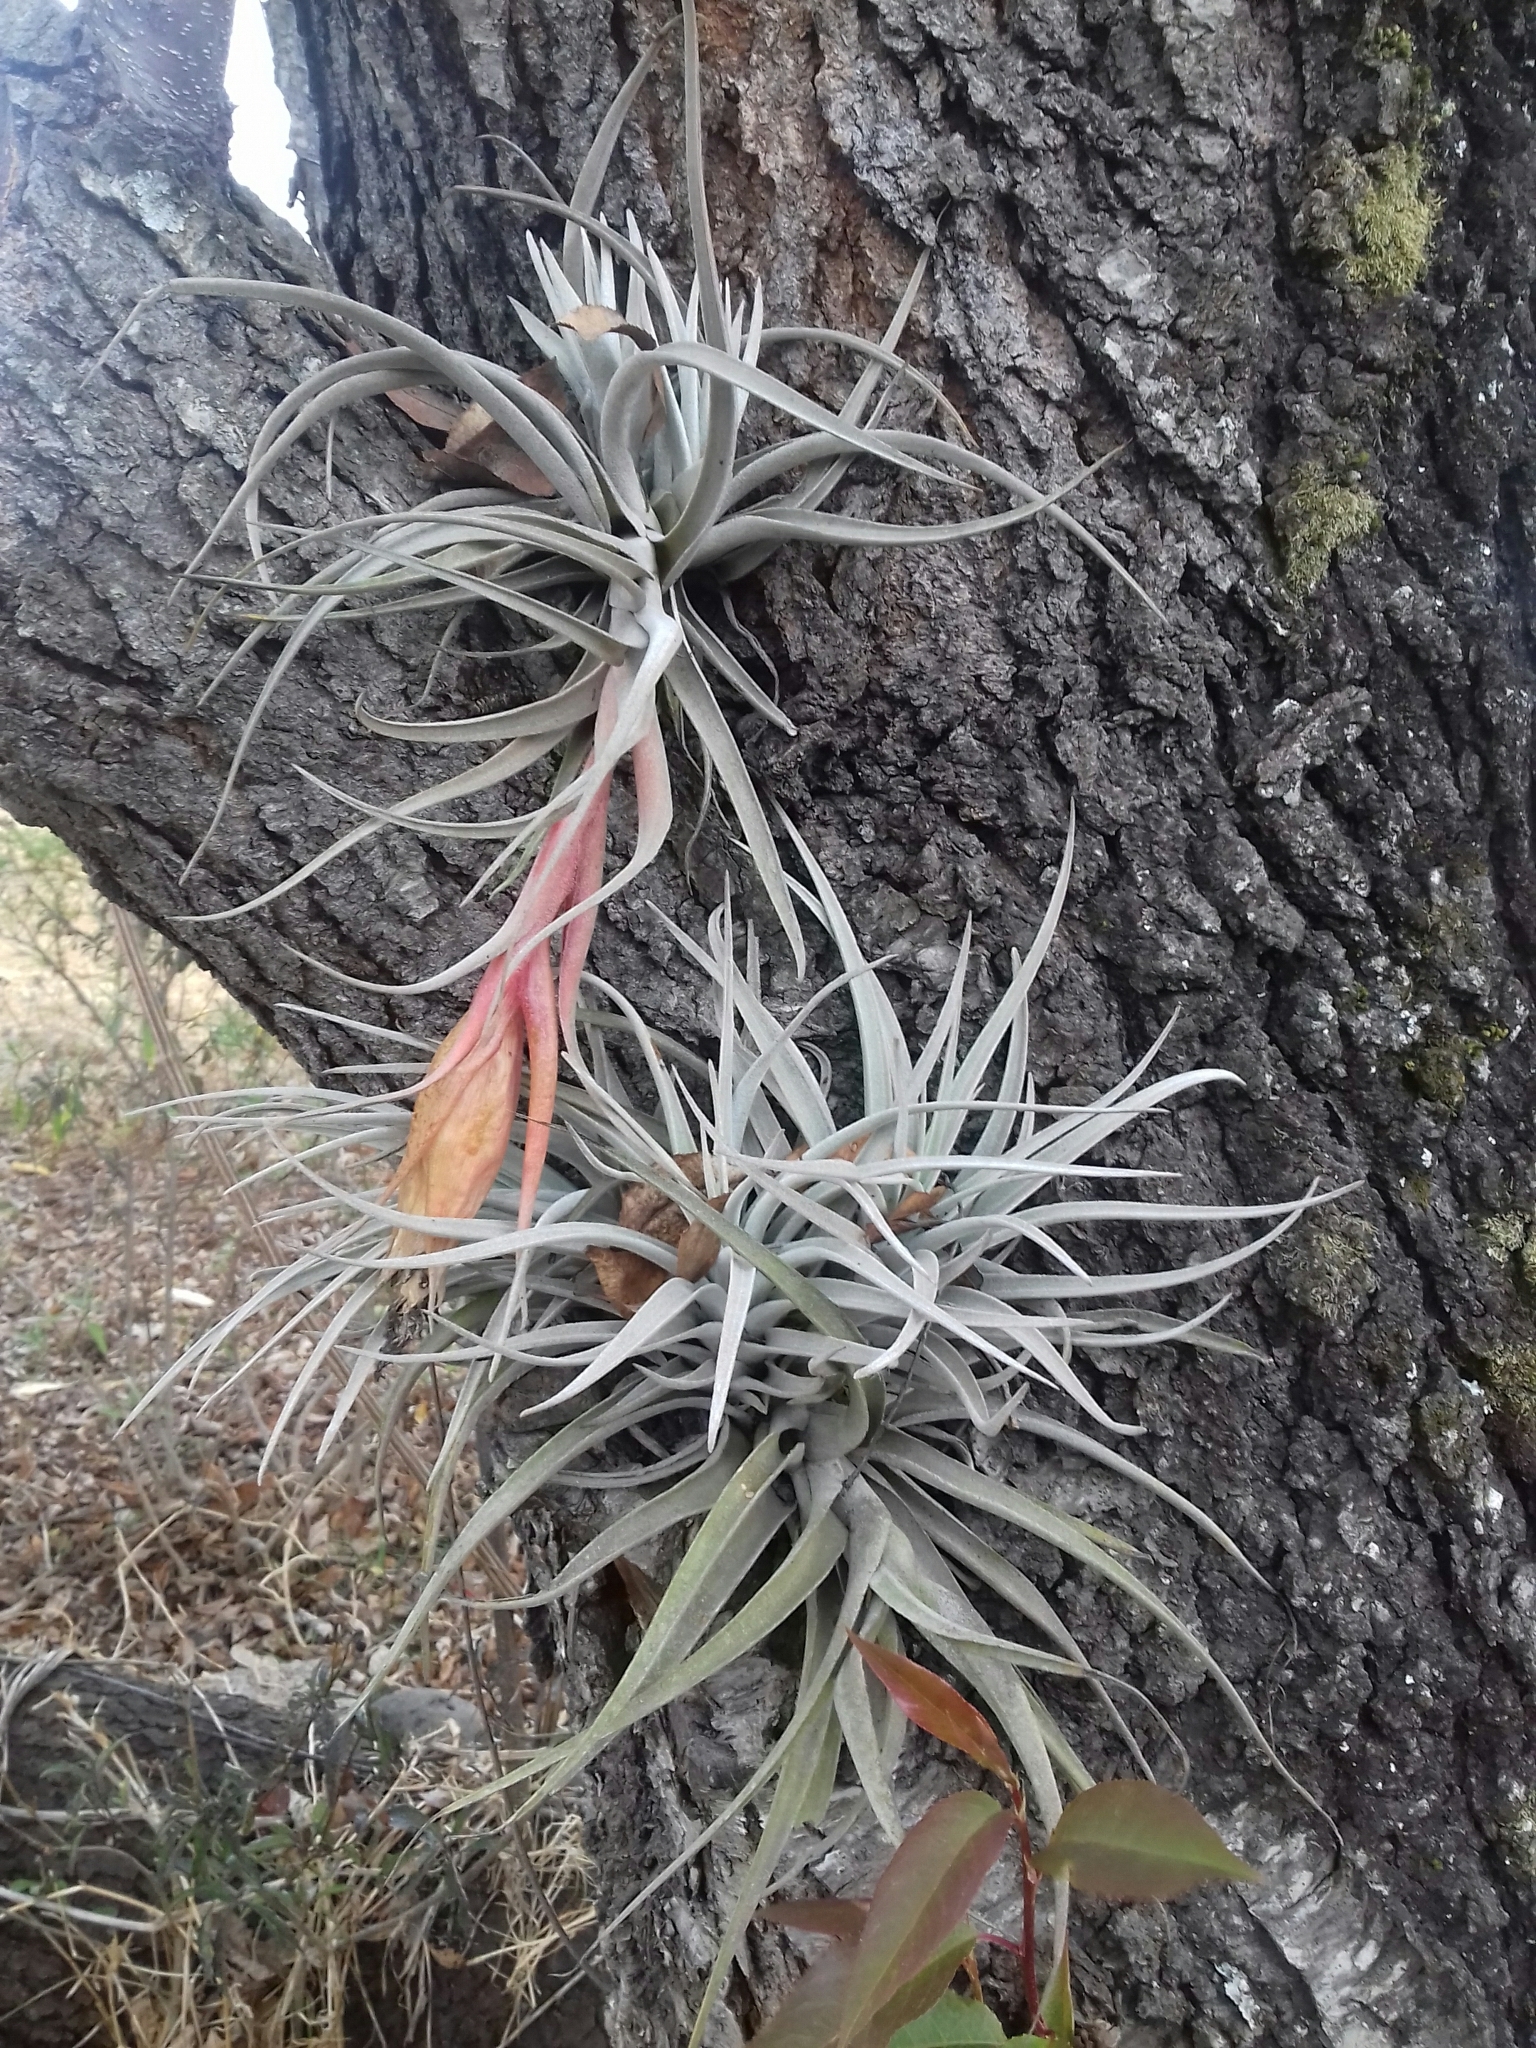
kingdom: Plantae
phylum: Tracheophyta
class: Liliopsida
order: Poales
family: Bromeliaceae
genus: Tillandsia
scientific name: Tillandsia erubescens
